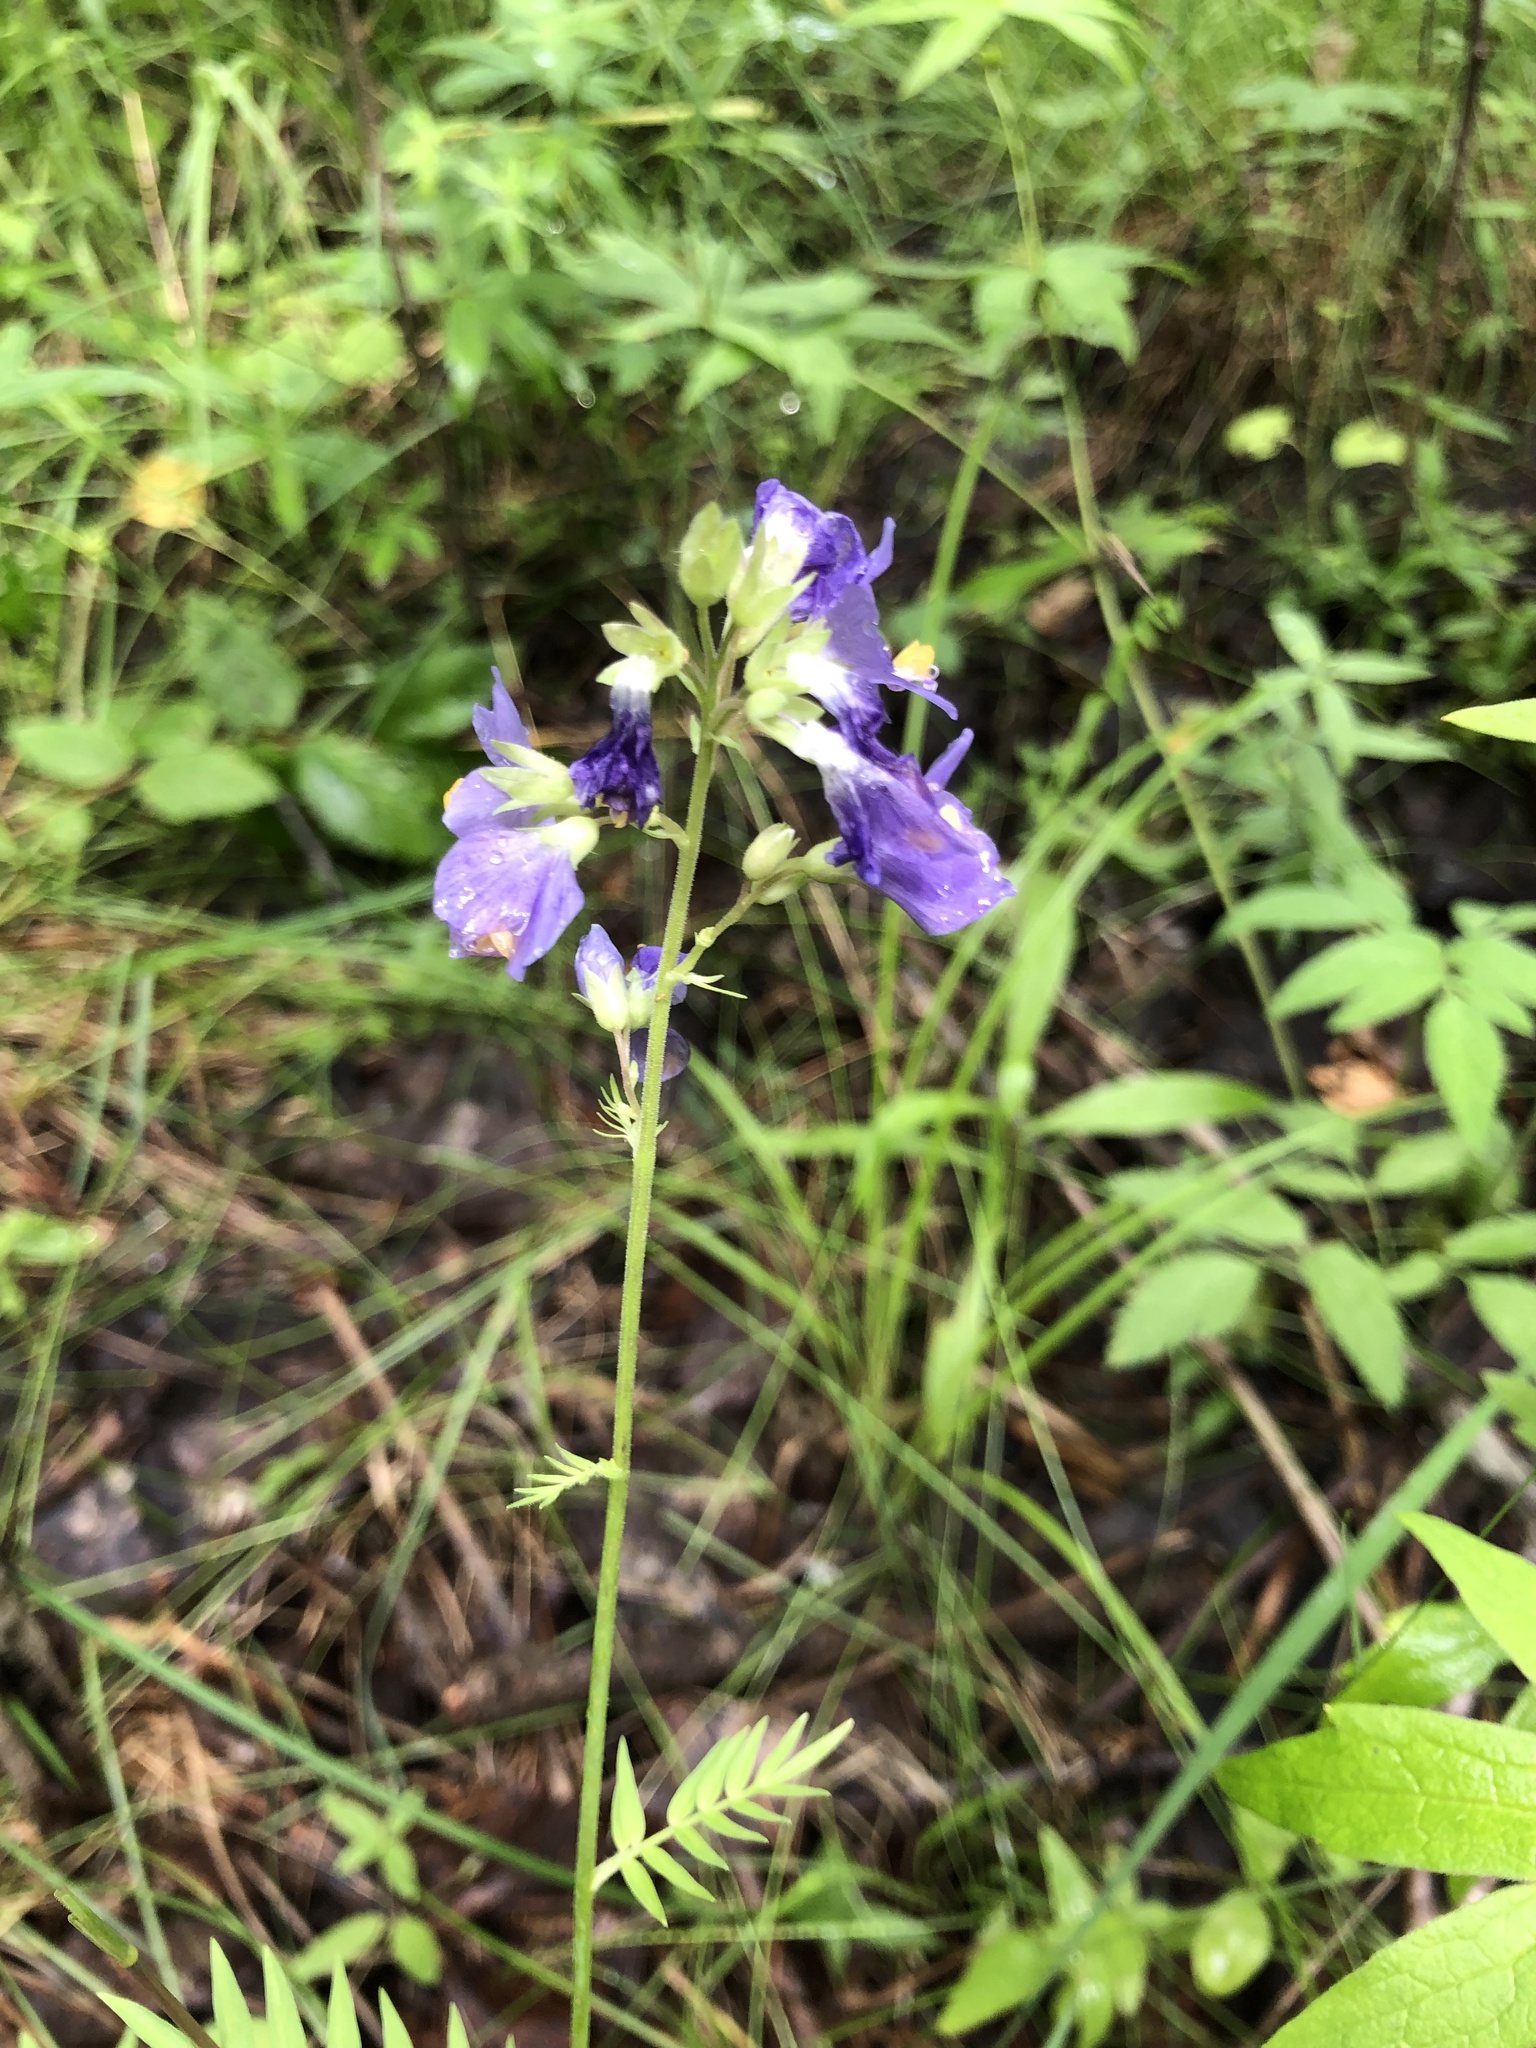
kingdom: Plantae
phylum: Tracheophyta
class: Magnoliopsida
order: Ericales
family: Polemoniaceae
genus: Polemonium
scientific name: Polemonium caeruleum
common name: Jacob's-ladder
